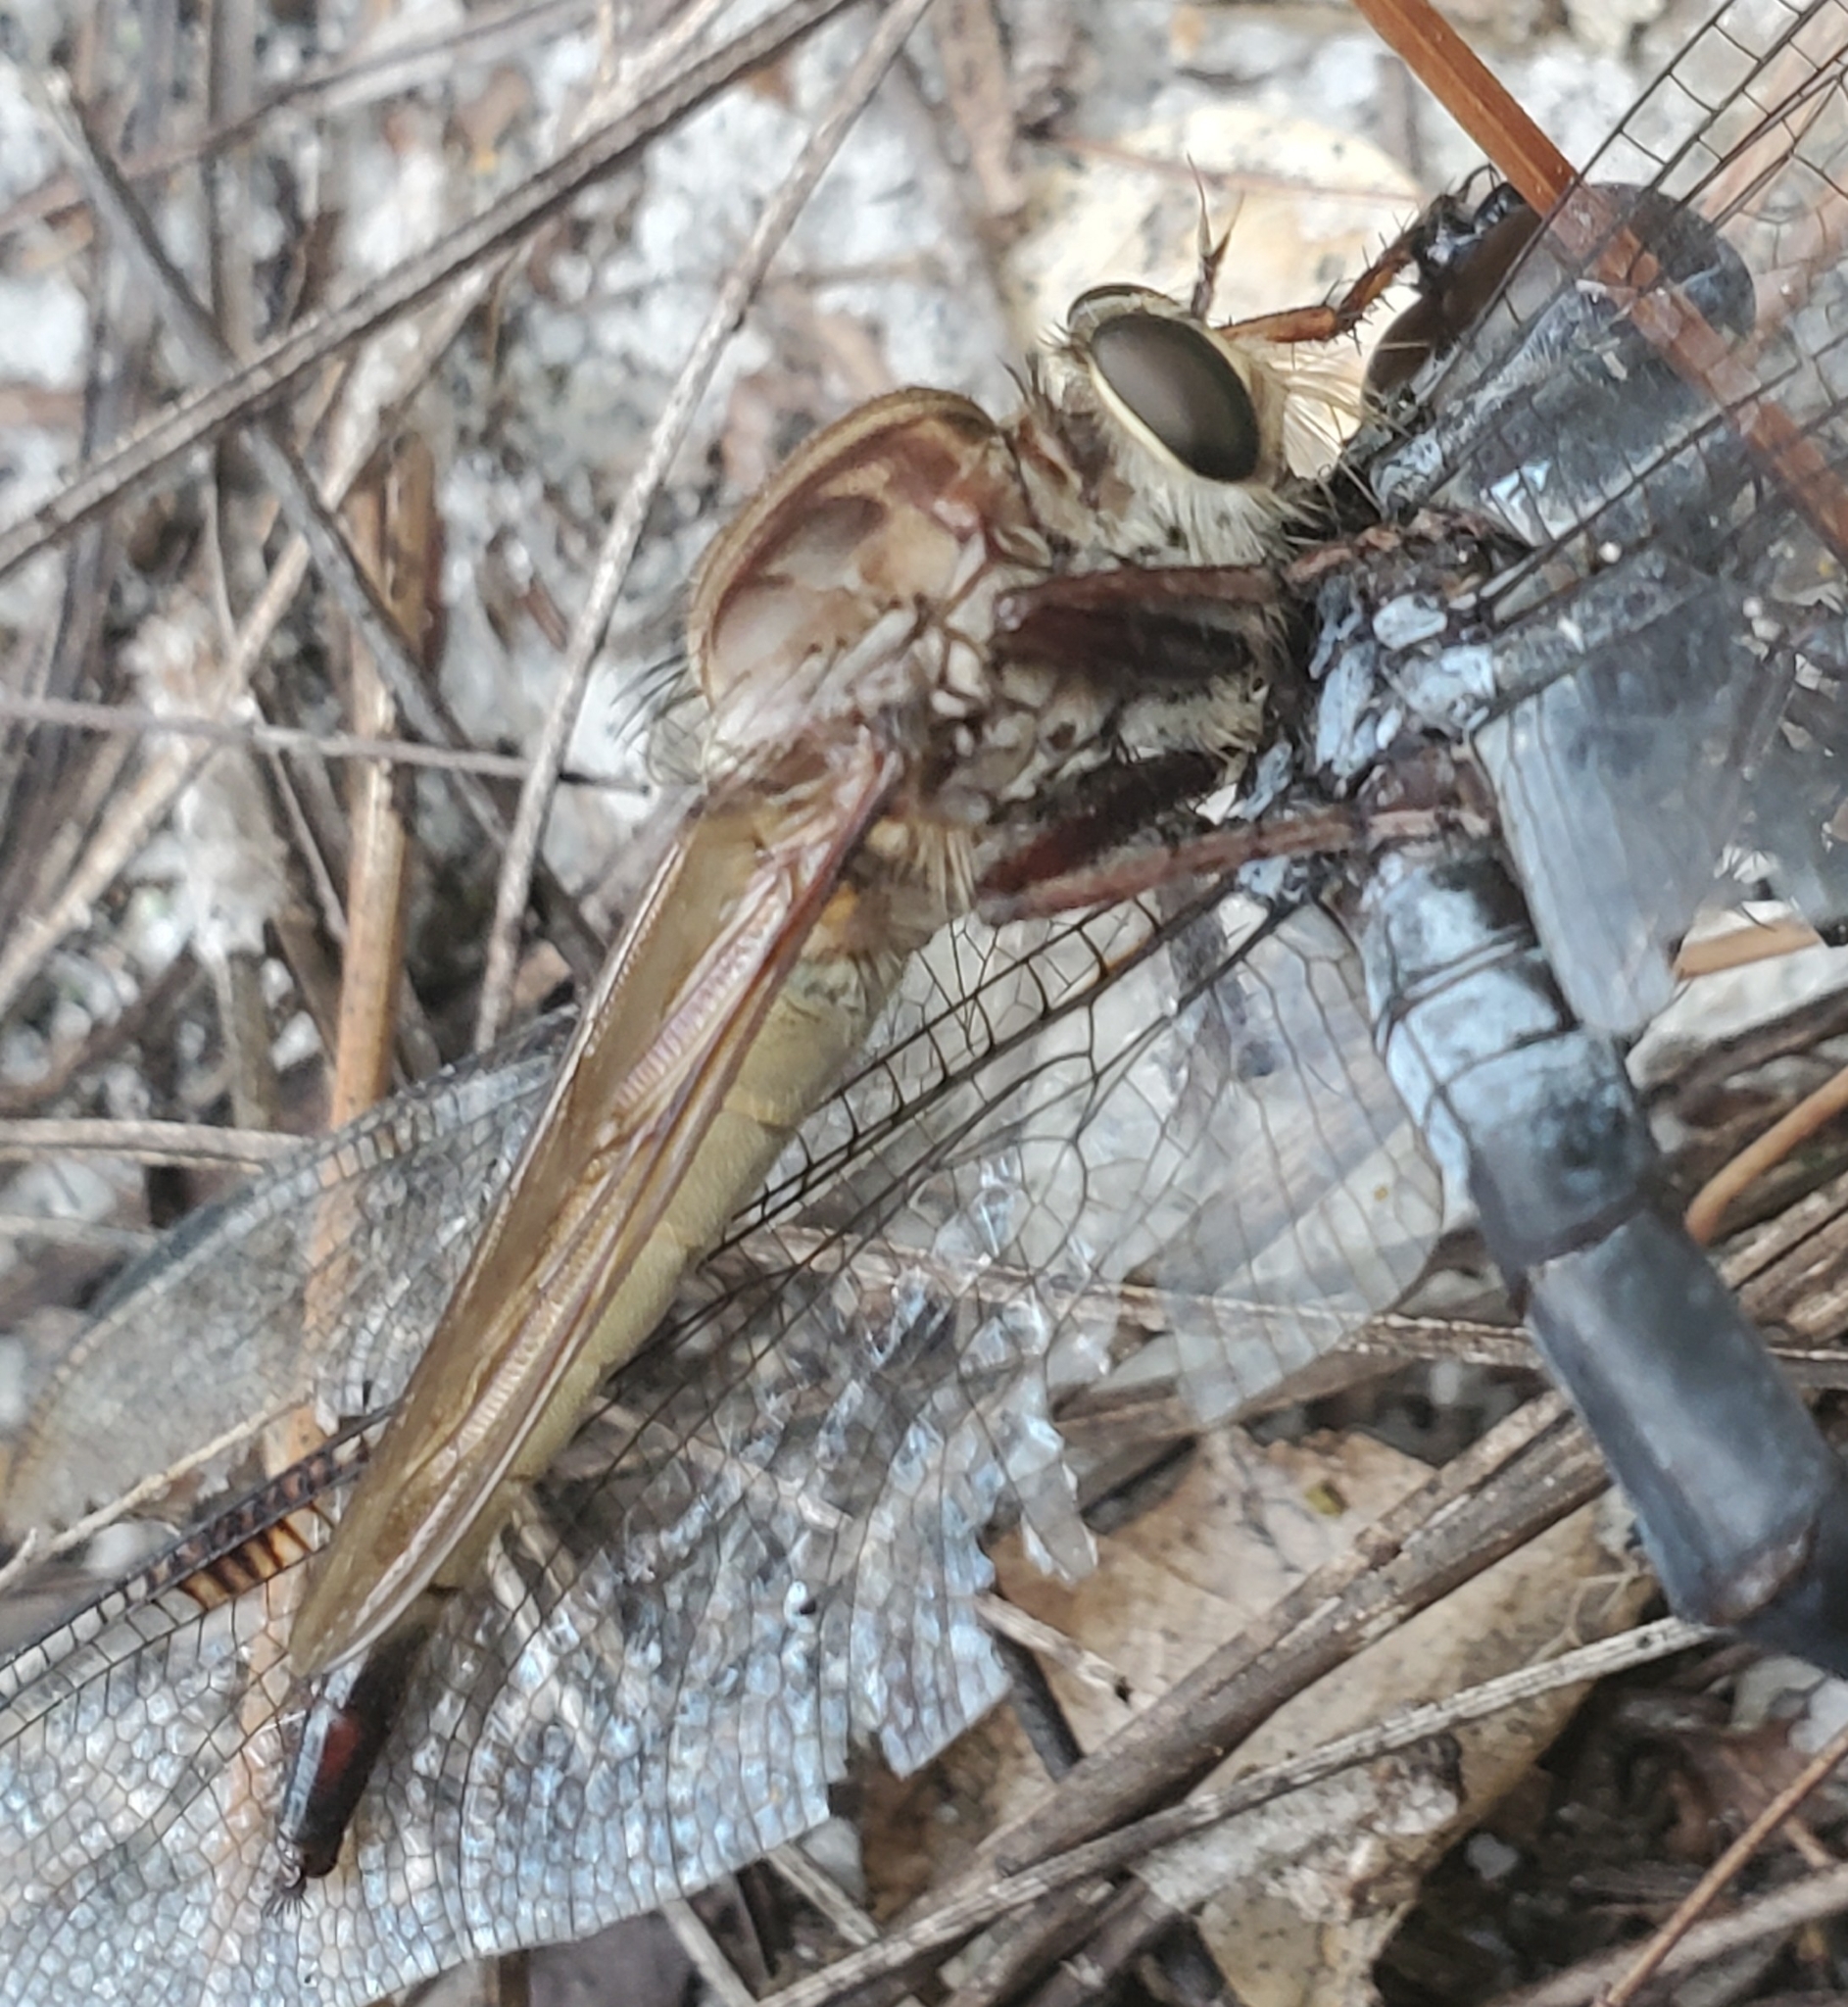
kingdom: Animalia
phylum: Arthropoda
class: Insecta
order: Diptera
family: Asilidae
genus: Proctacanthus
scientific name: Proctacanthus longus
